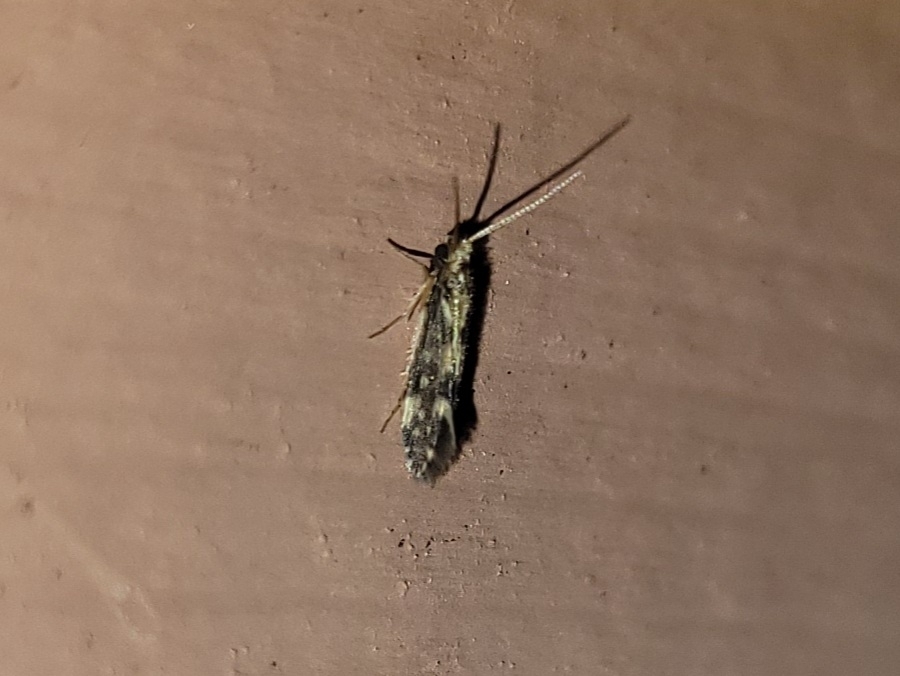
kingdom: Animalia
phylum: Arthropoda
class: Insecta
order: Trichoptera
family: Hydroptilidae
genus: Agraylea
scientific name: Agraylea multipunctata
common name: Salt and pepper microcaddisfly
